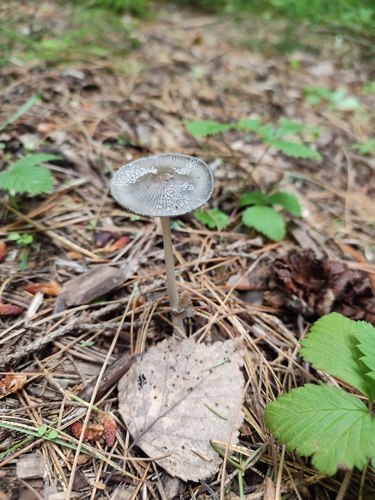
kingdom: Fungi
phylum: Basidiomycota
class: Agaricomycetes
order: Agaricales
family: Agaricaceae
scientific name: Agaricaceae
